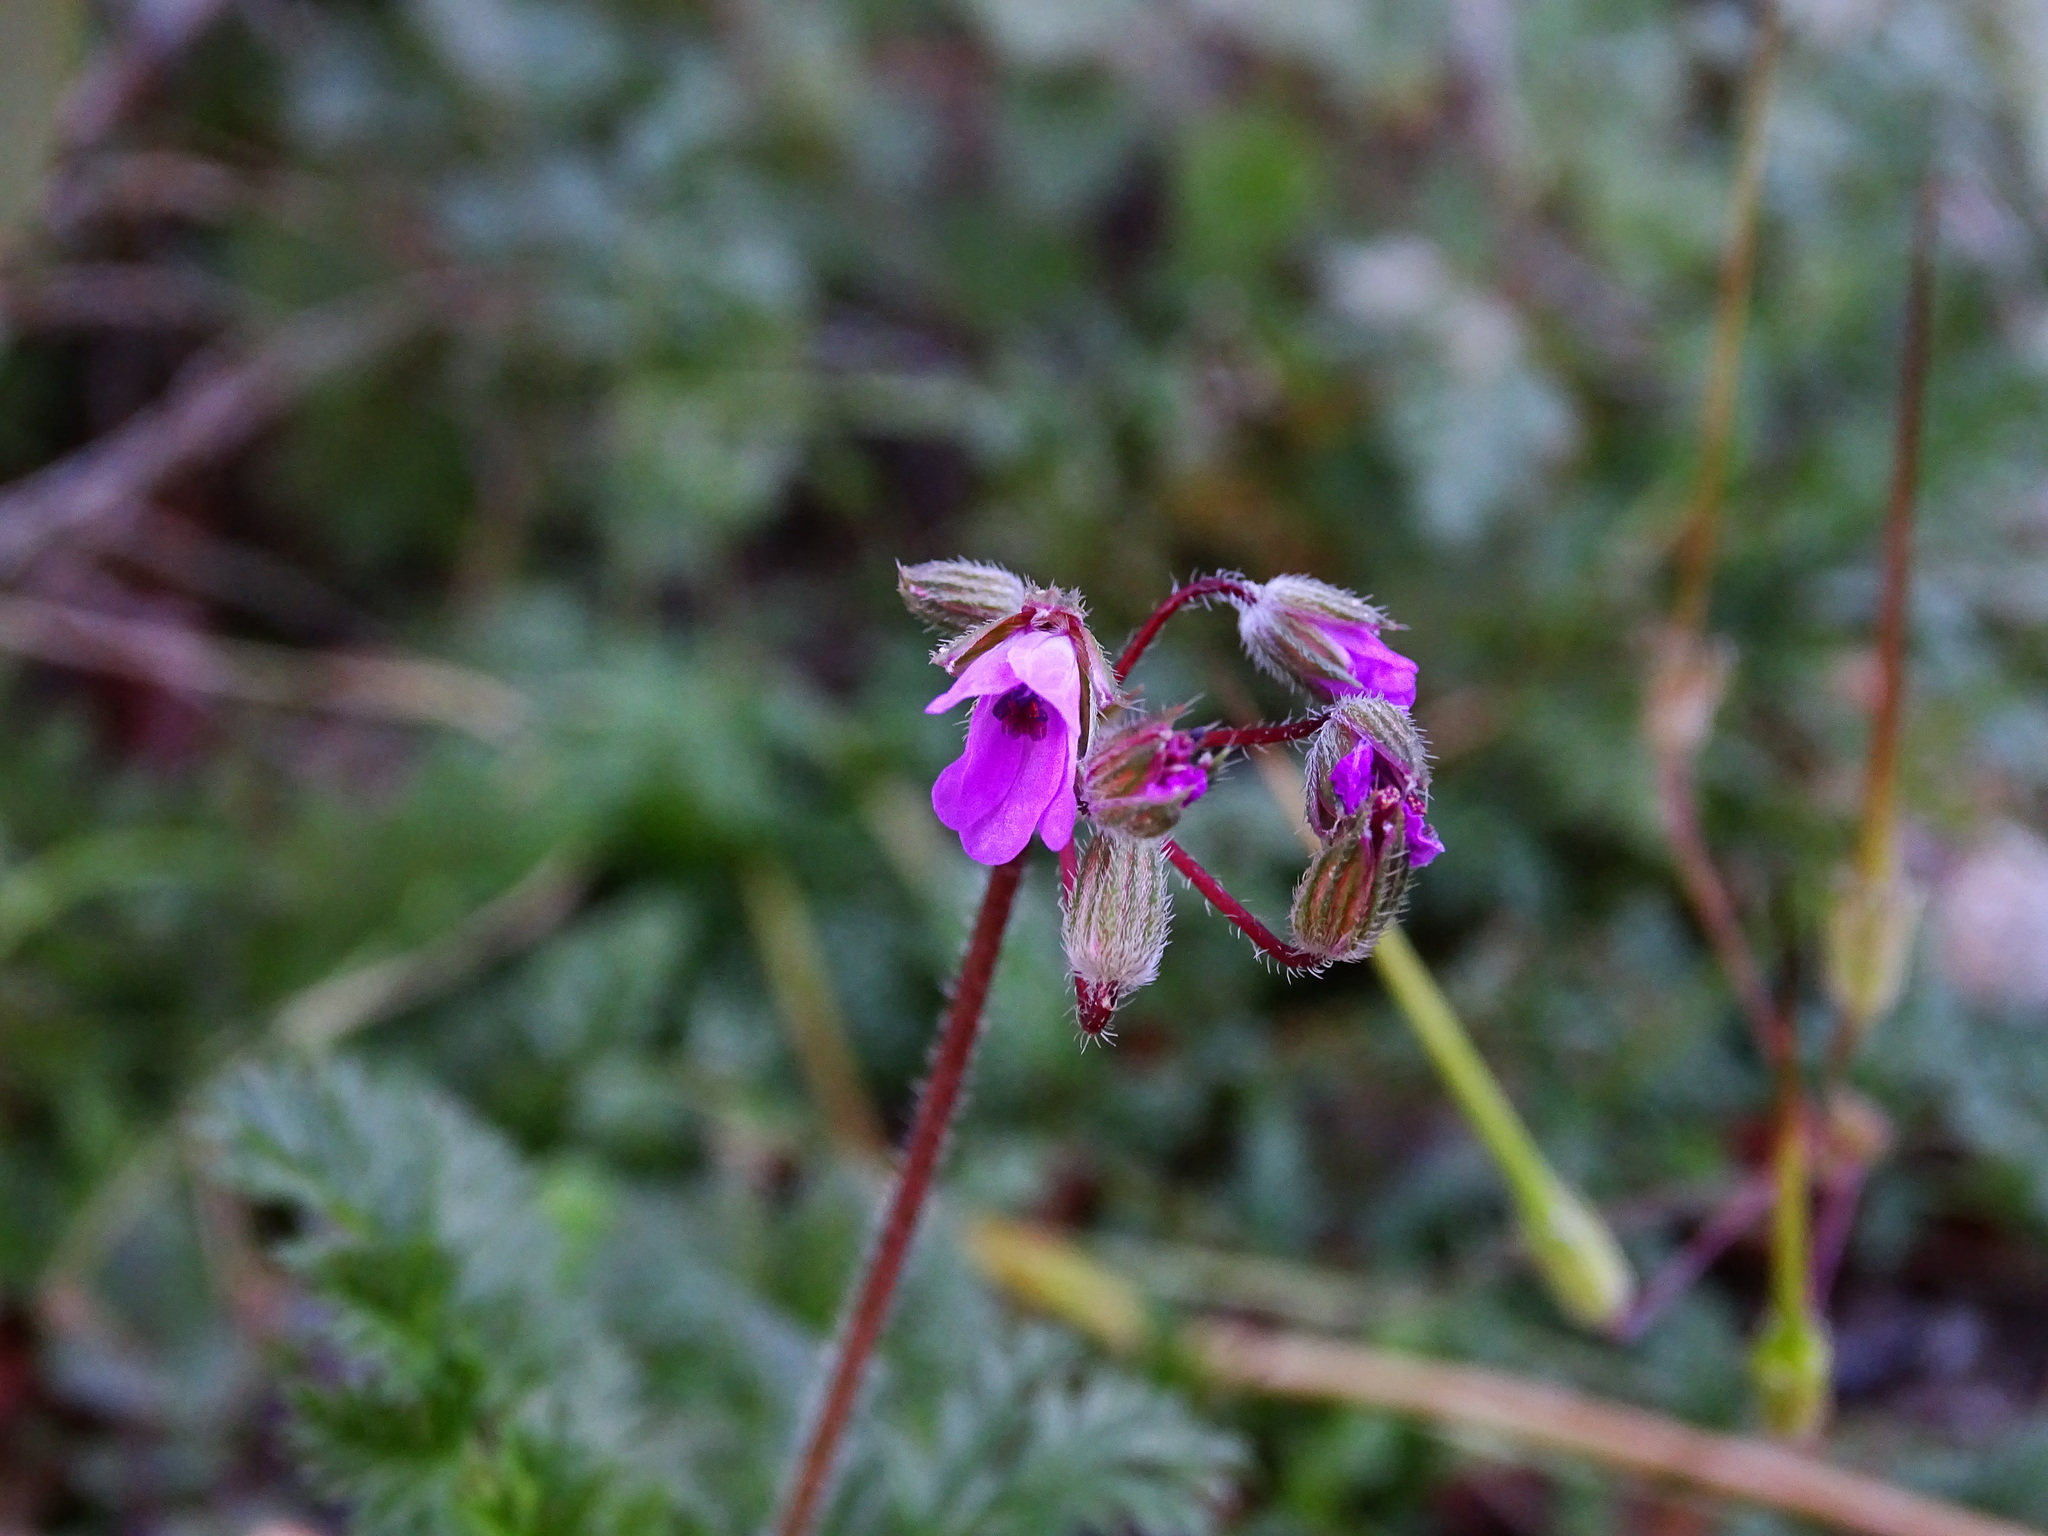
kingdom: Plantae
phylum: Tracheophyta
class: Magnoliopsida
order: Geraniales
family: Geraniaceae
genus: Erodium
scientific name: Erodium cicutarium
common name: Common stork's-bill
